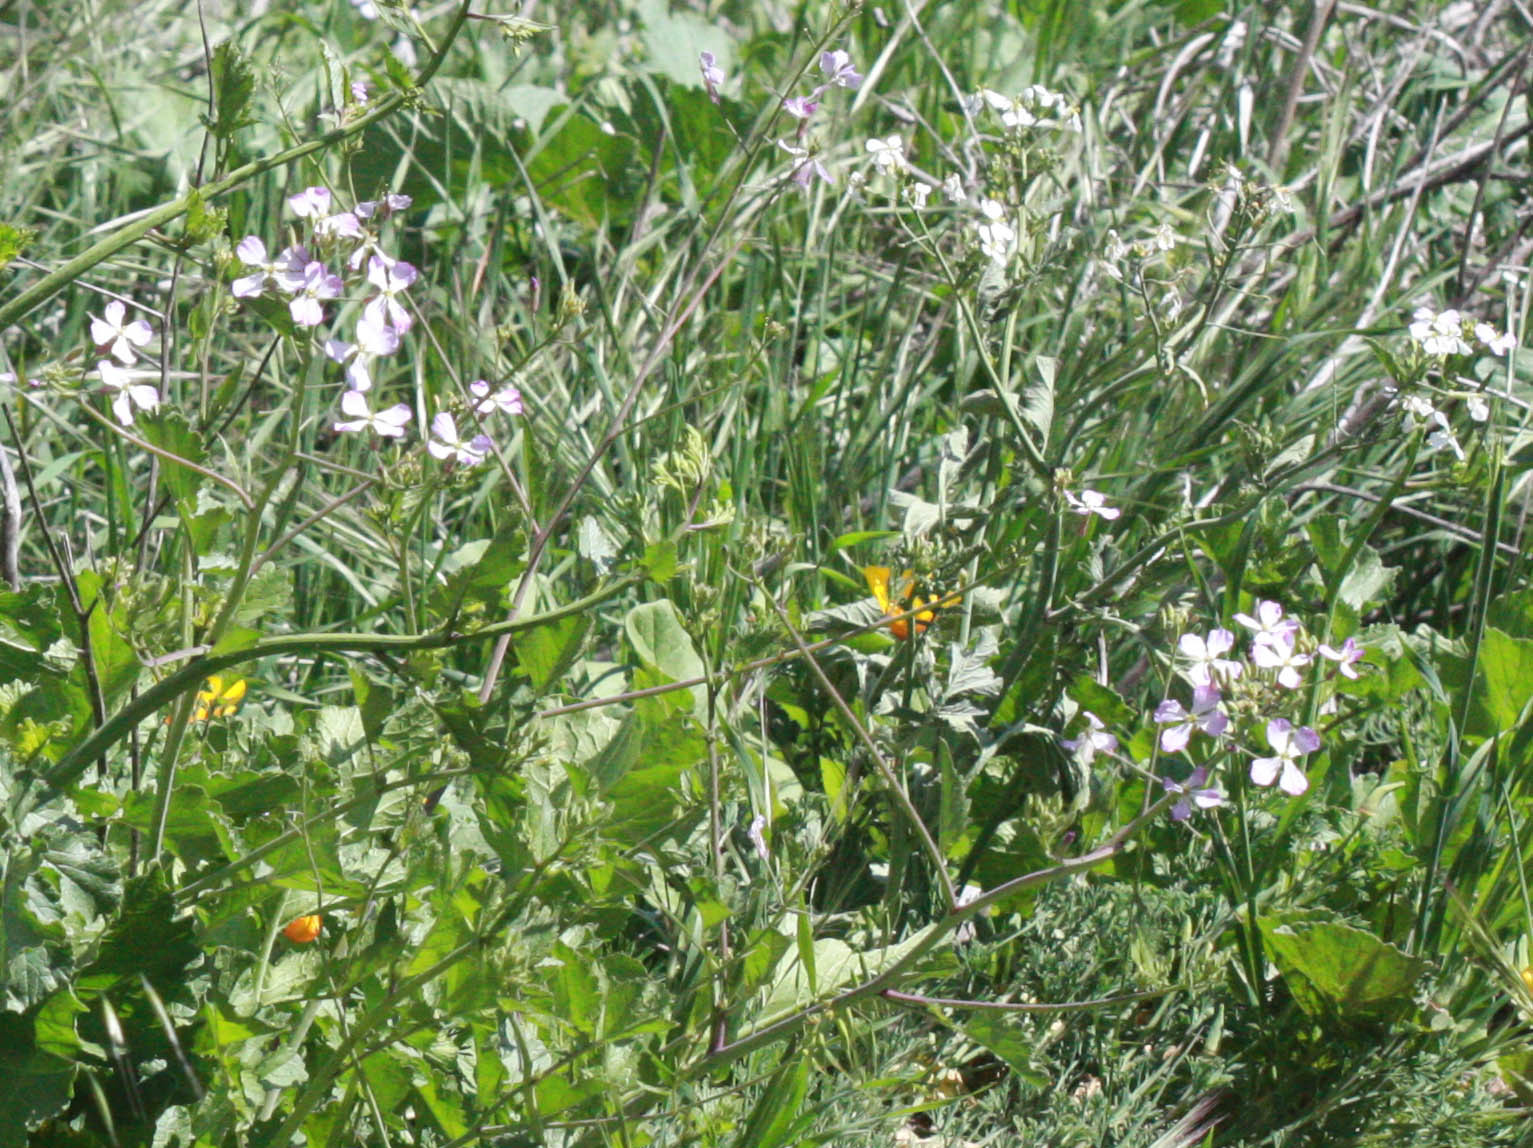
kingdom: Plantae
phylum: Tracheophyta
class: Magnoliopsida
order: Brassicales
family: Brassicaceae
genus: Raphanus
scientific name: Raphanus sativus
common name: Cultivated radish
